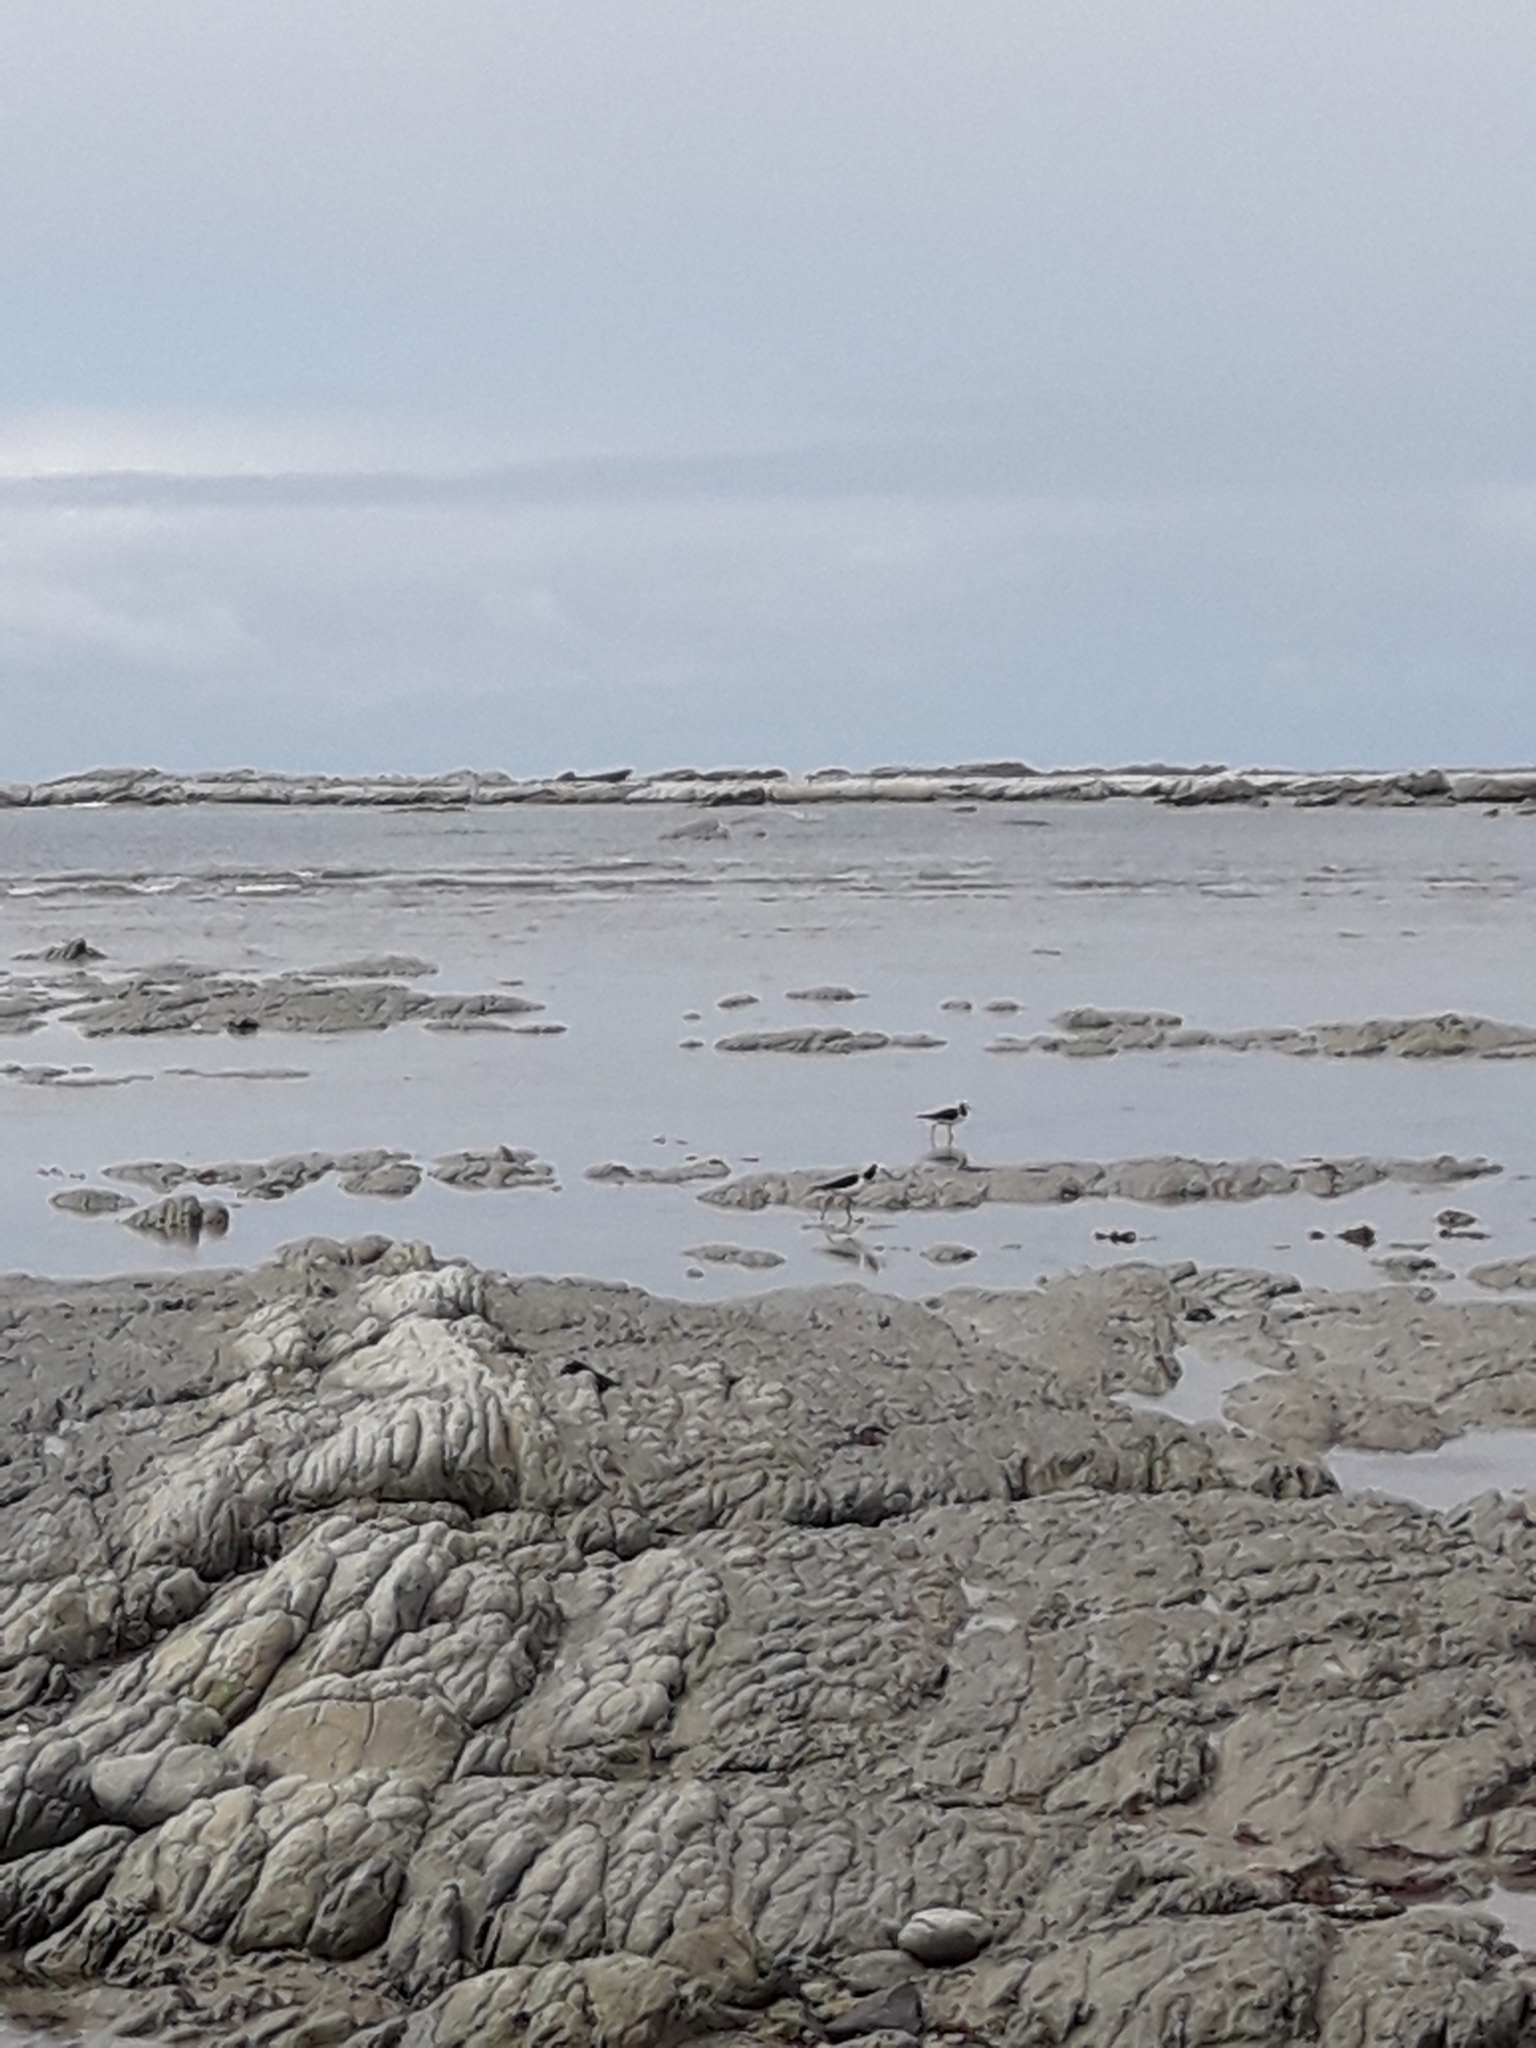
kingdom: Animalia
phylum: Chordata
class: Aves
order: Charadriiformes
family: Recurvirostridae
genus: Himantopus
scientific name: Himantopus leucocephalus
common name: White-headed stilt
